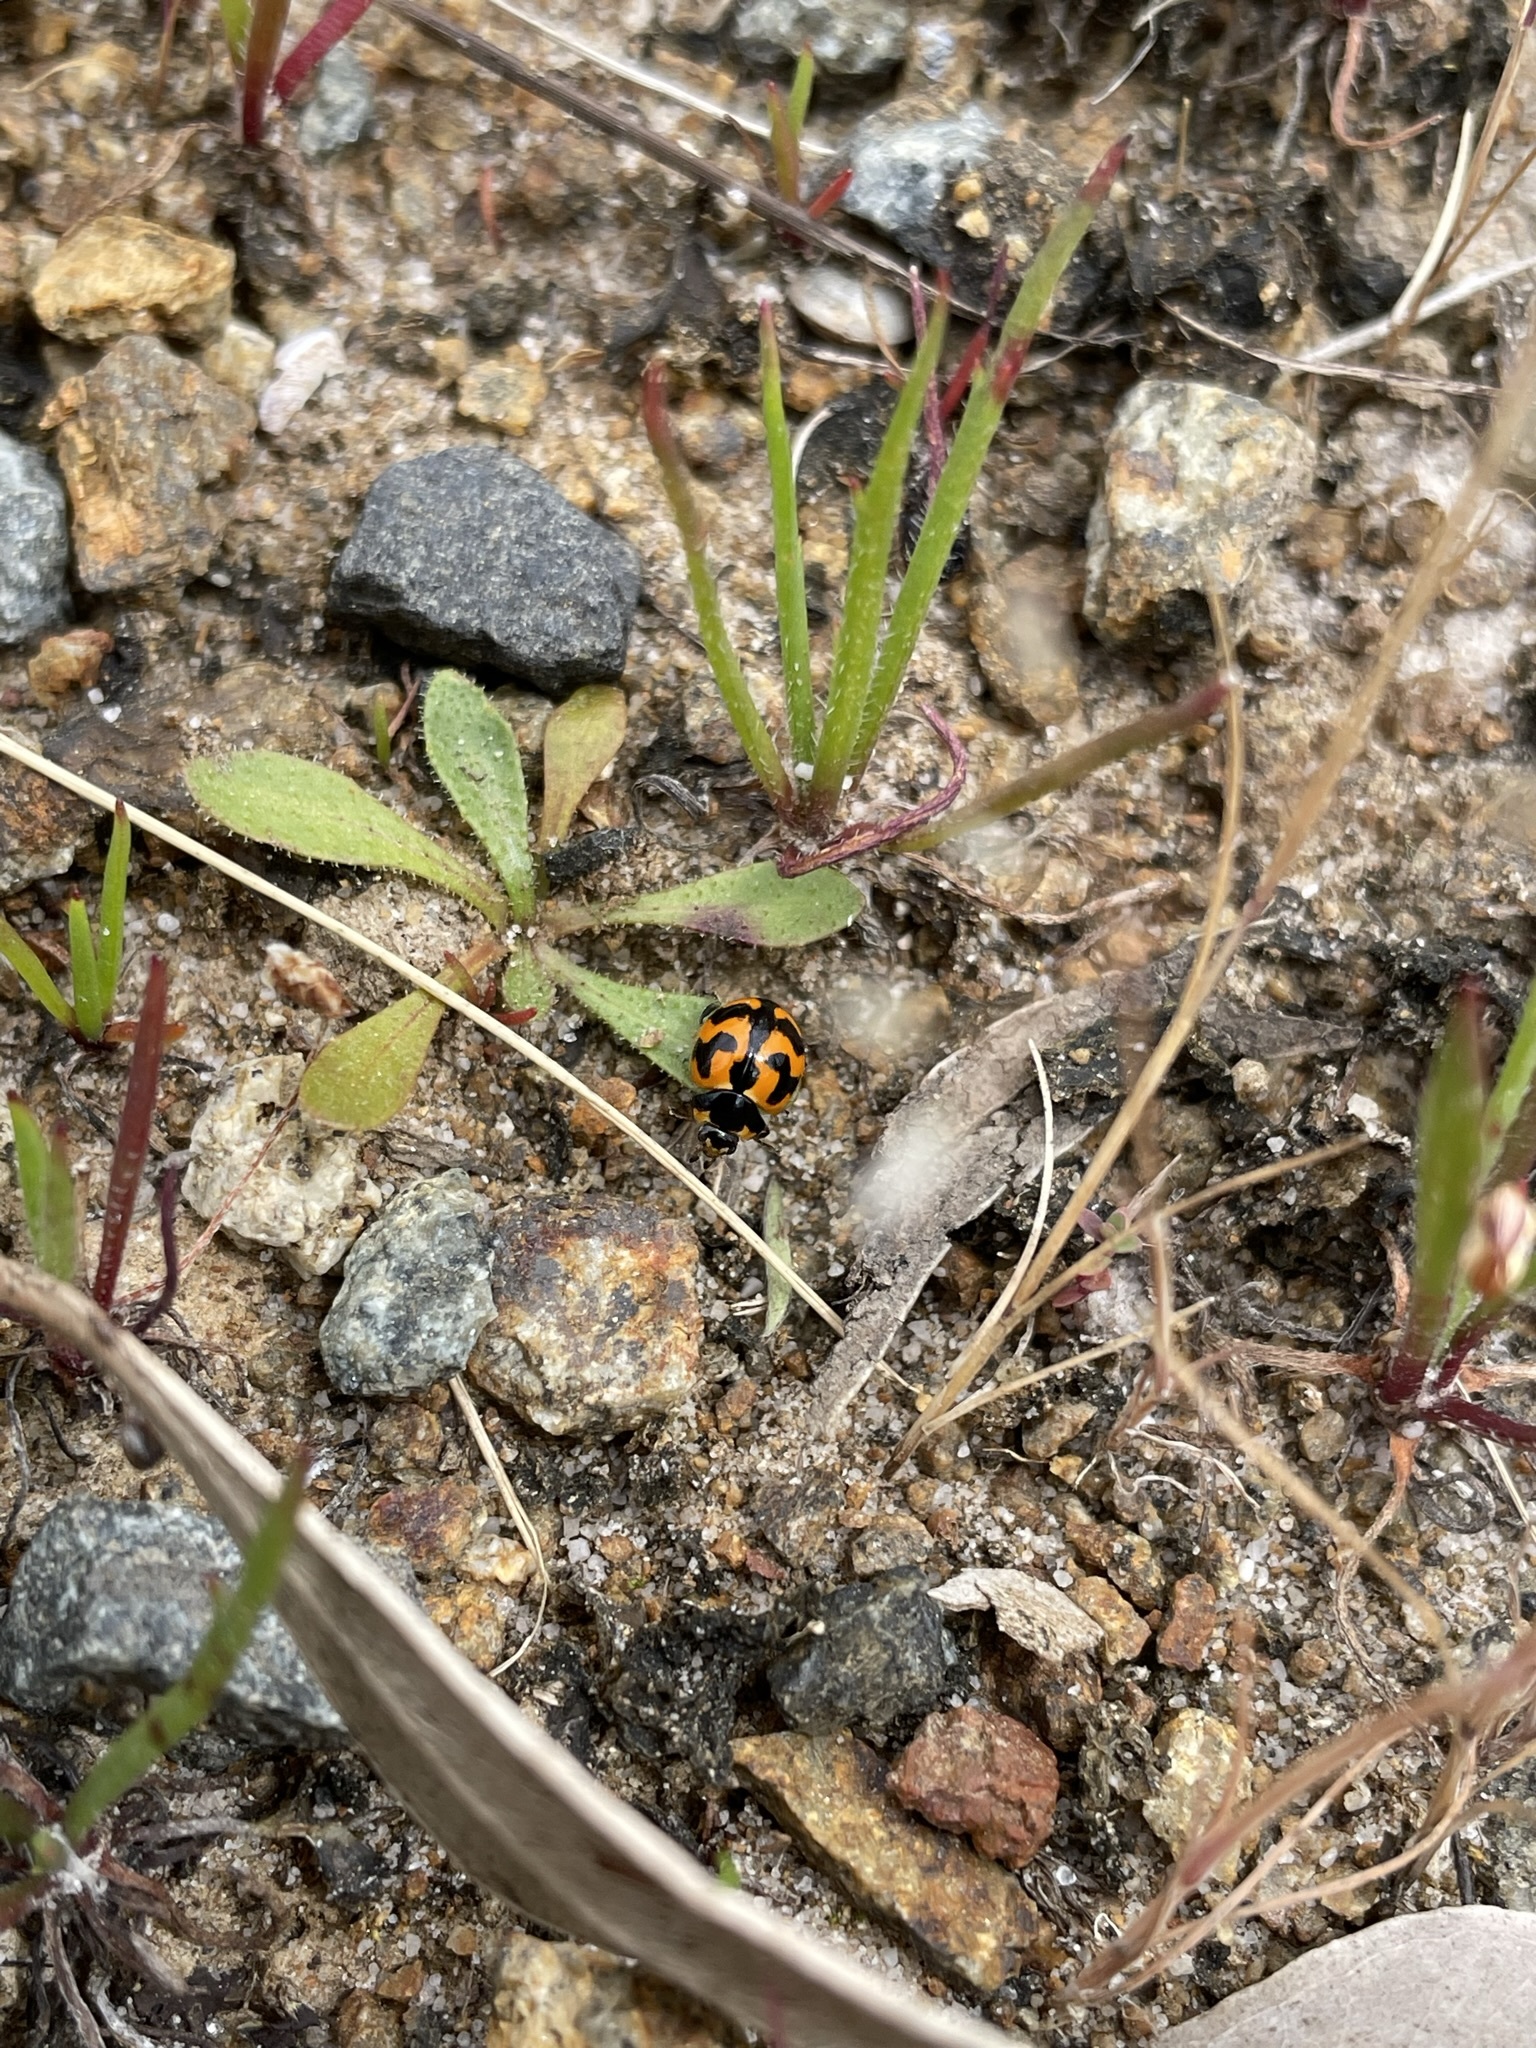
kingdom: Animalia
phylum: Arthropoda
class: Insecta
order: Coleoptera
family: Coccinellidae
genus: Coccinella
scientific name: Coccinella transversalis
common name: Transverse lady beetle
